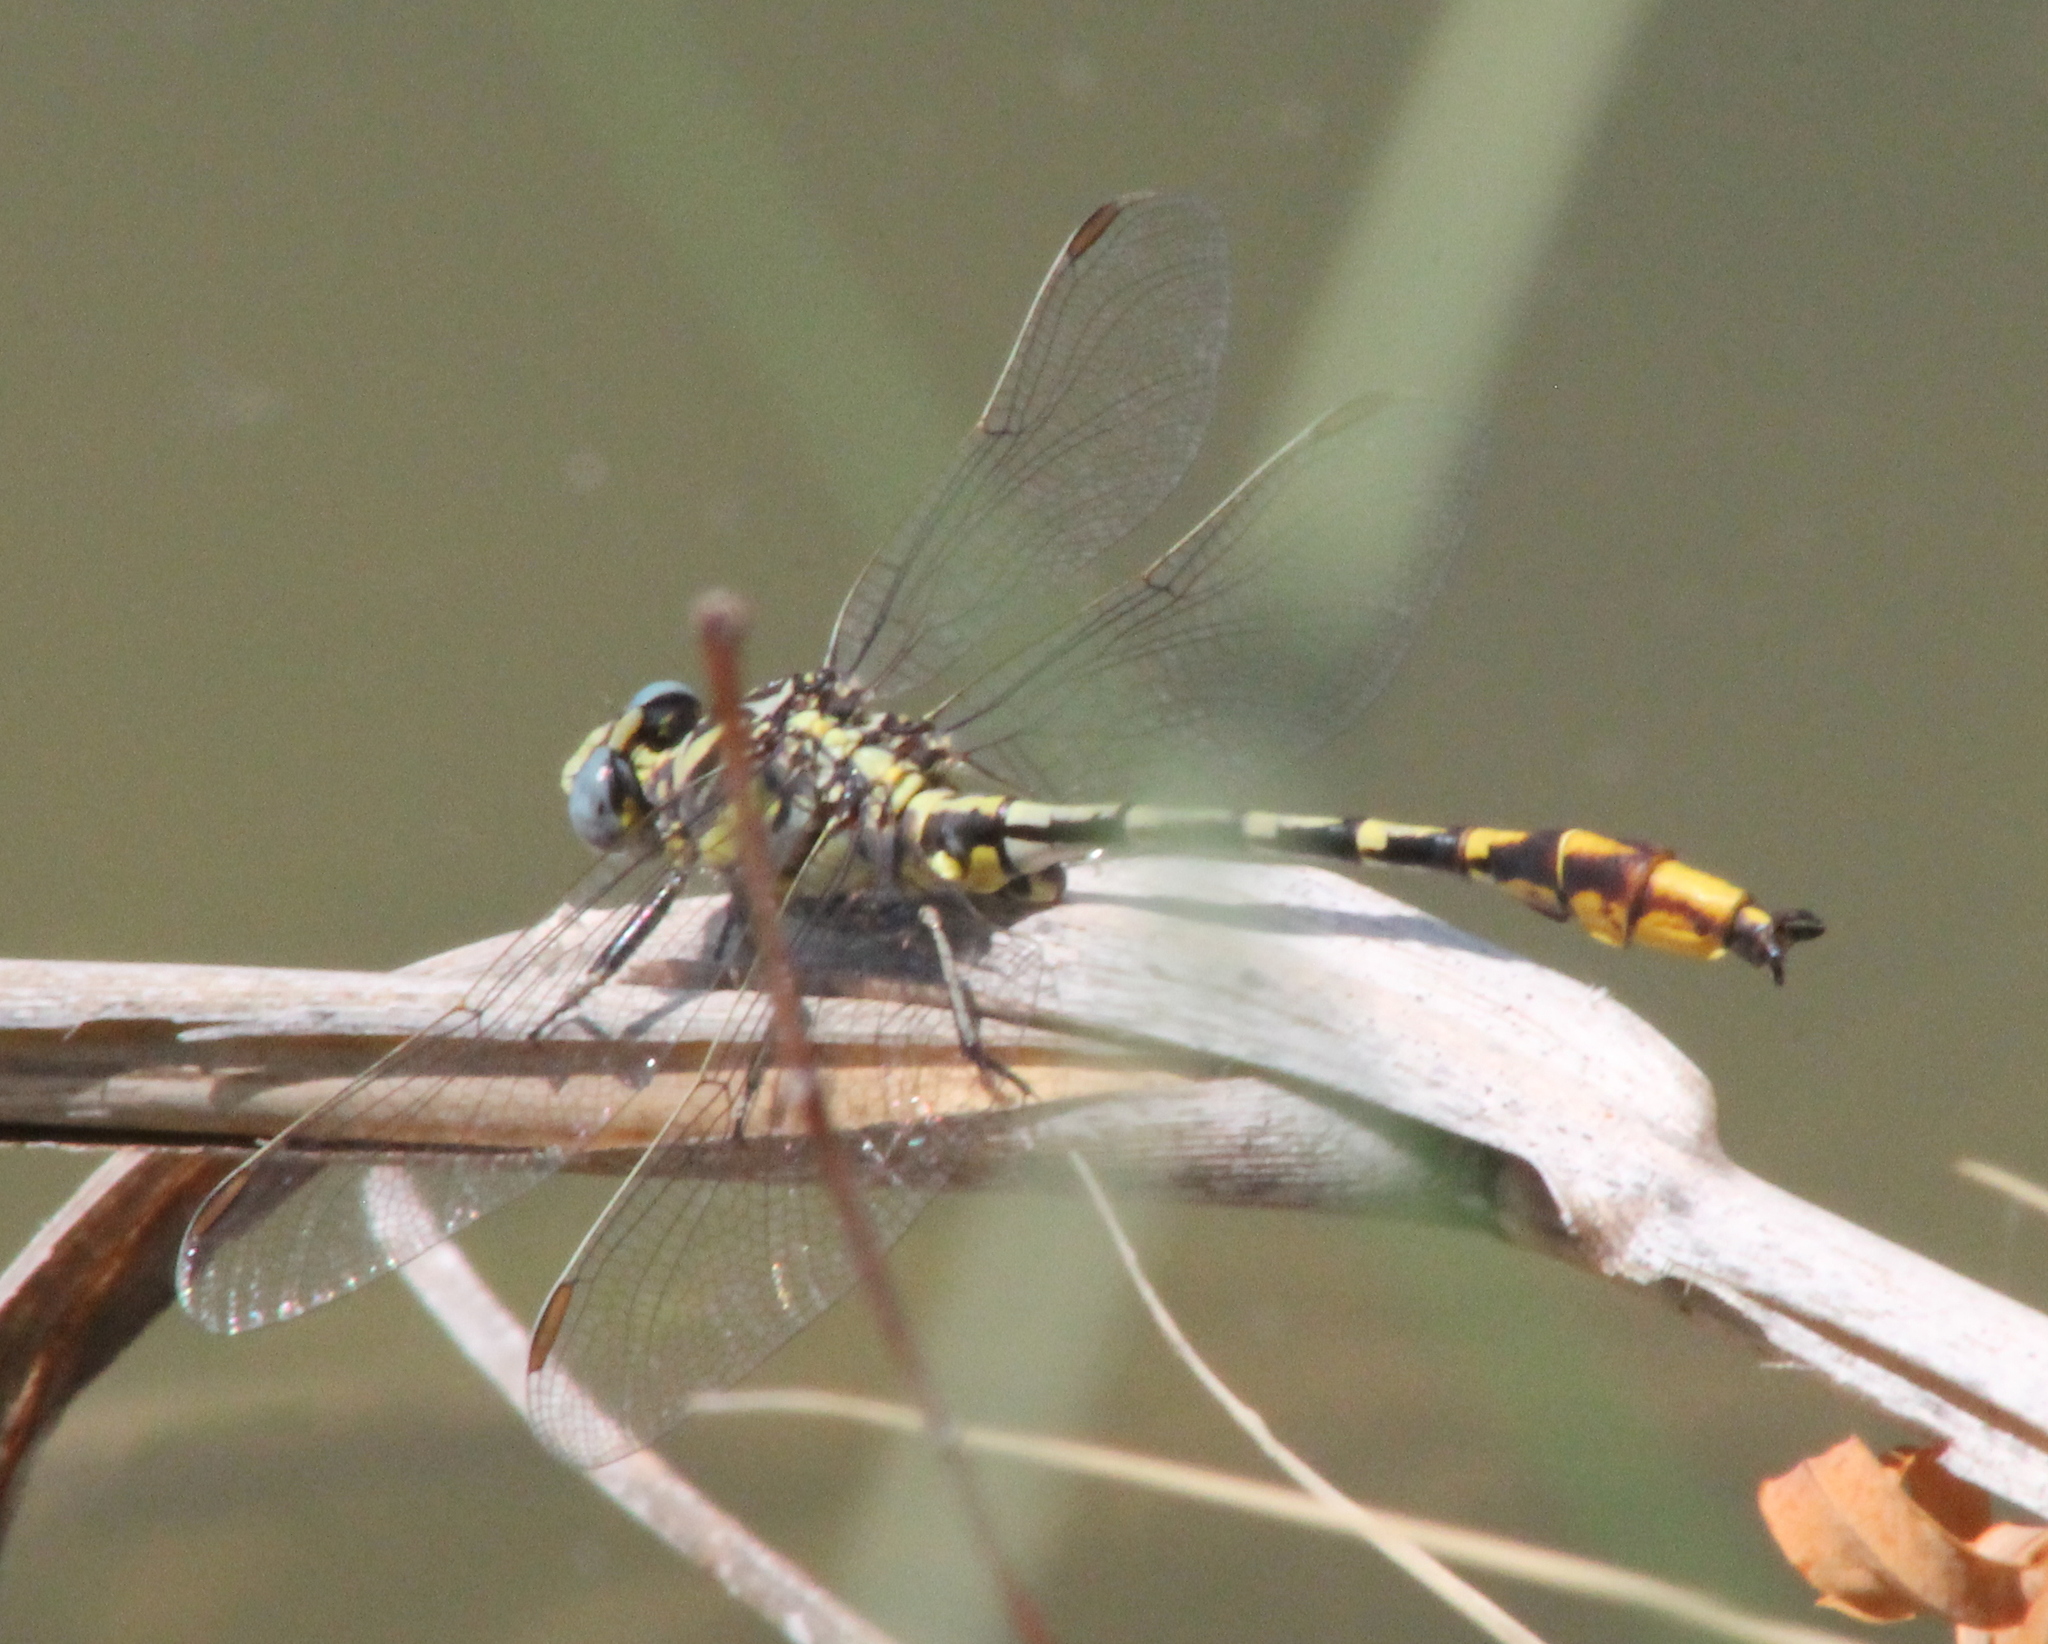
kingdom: Animalia
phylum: Arthropoda
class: Insecta
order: Odonata
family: Gomphidae
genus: Phanogomphus
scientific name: Phanogomphus militaris
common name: Sulphur-tipped clubtail
